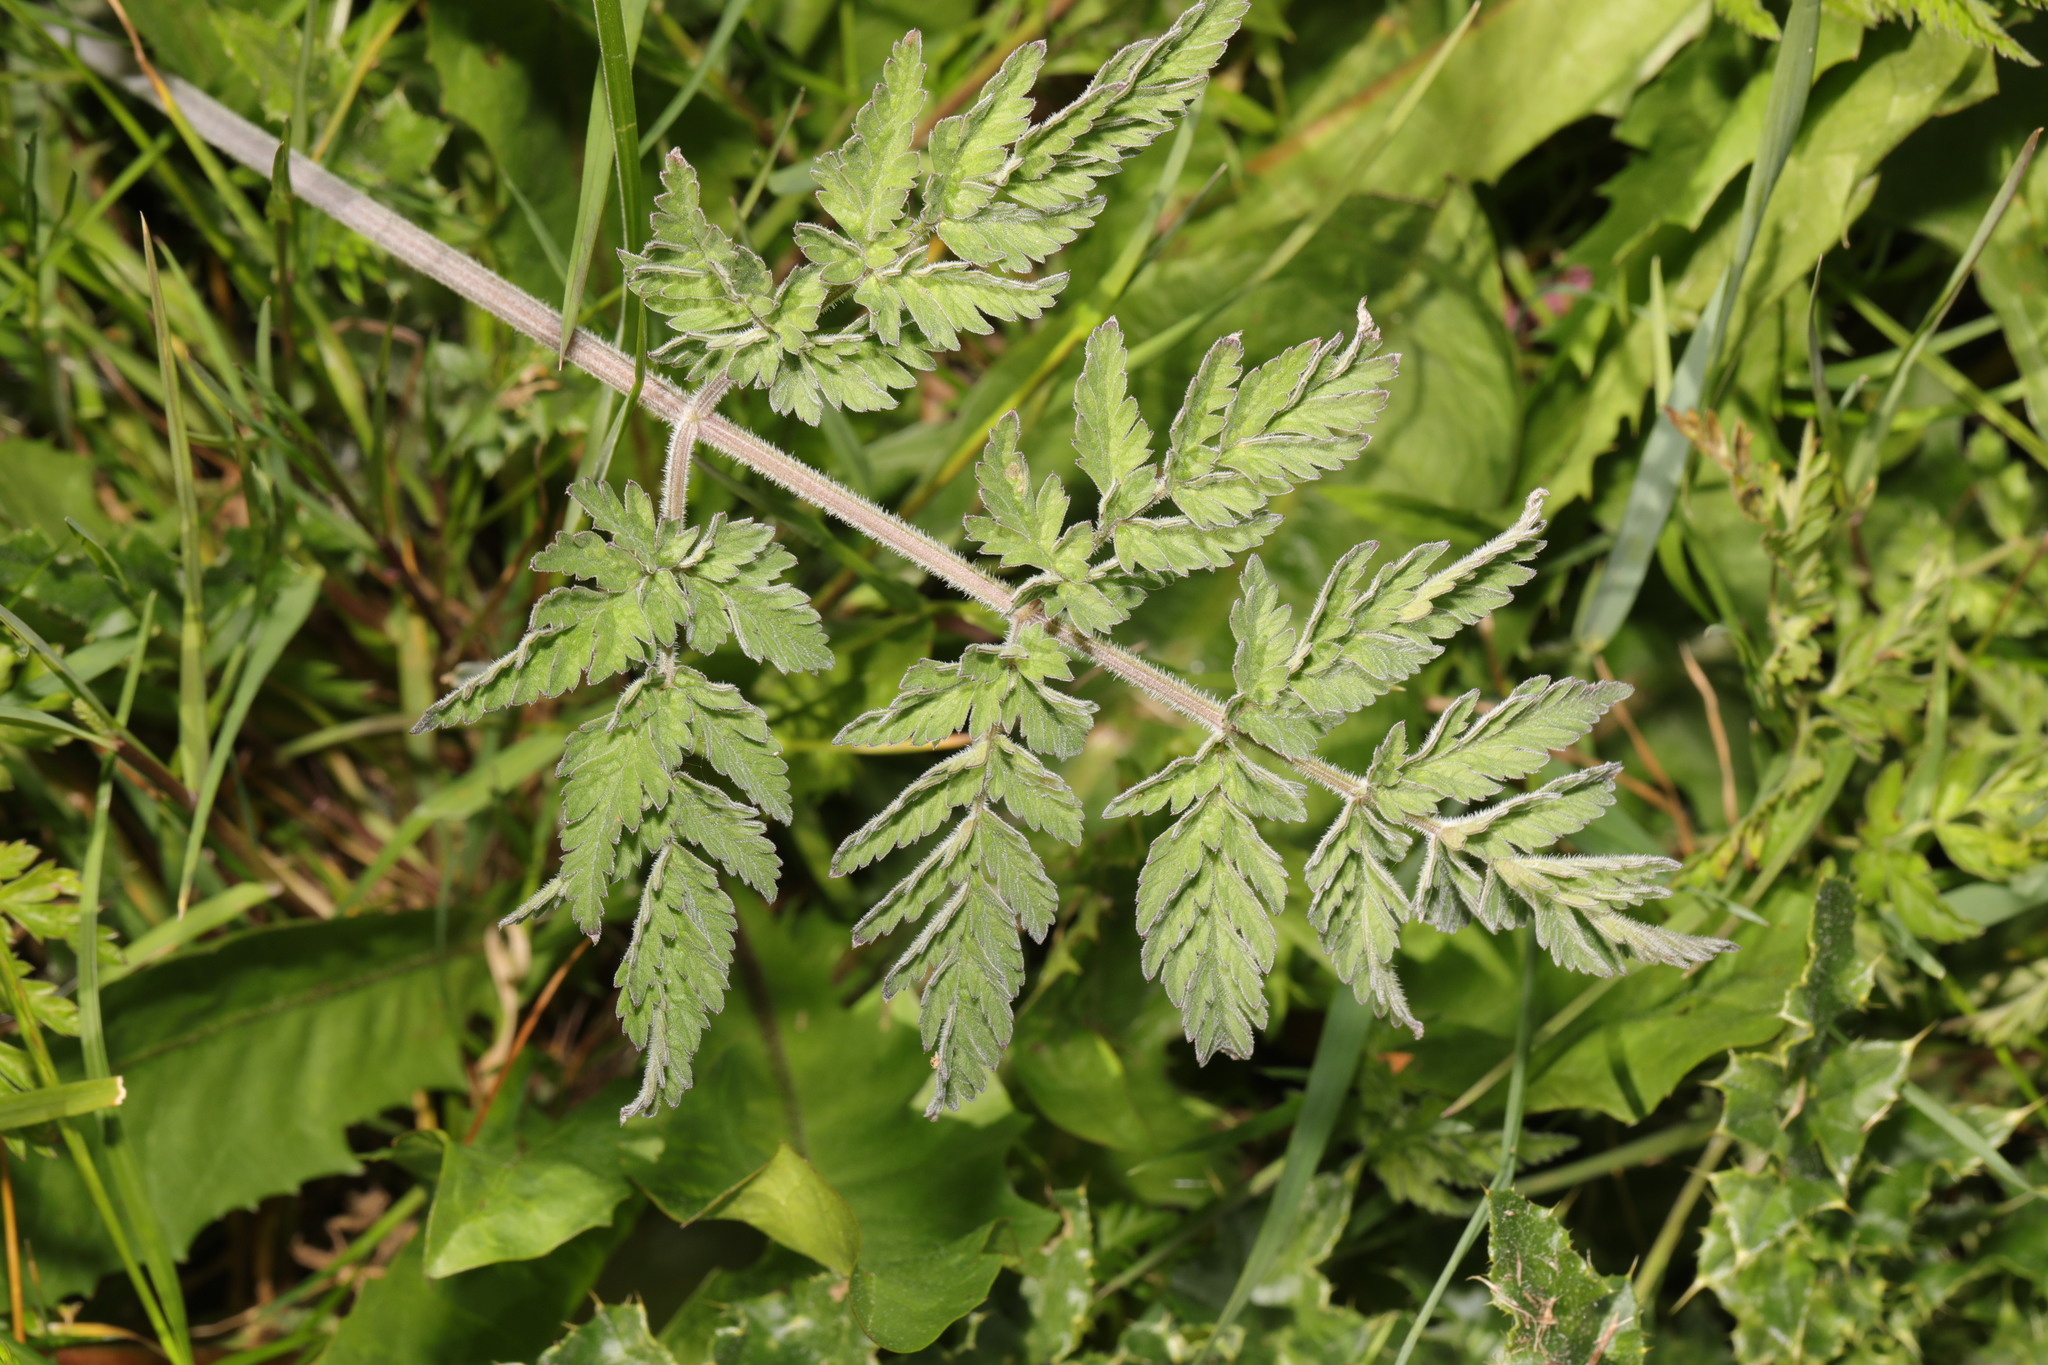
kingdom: Plantae
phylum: Tracheophyta
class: Magnoliopsida
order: Apiales
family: Apiaceae
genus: Anthriscus
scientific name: Anthriscus sylvestris
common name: Cow parsley
